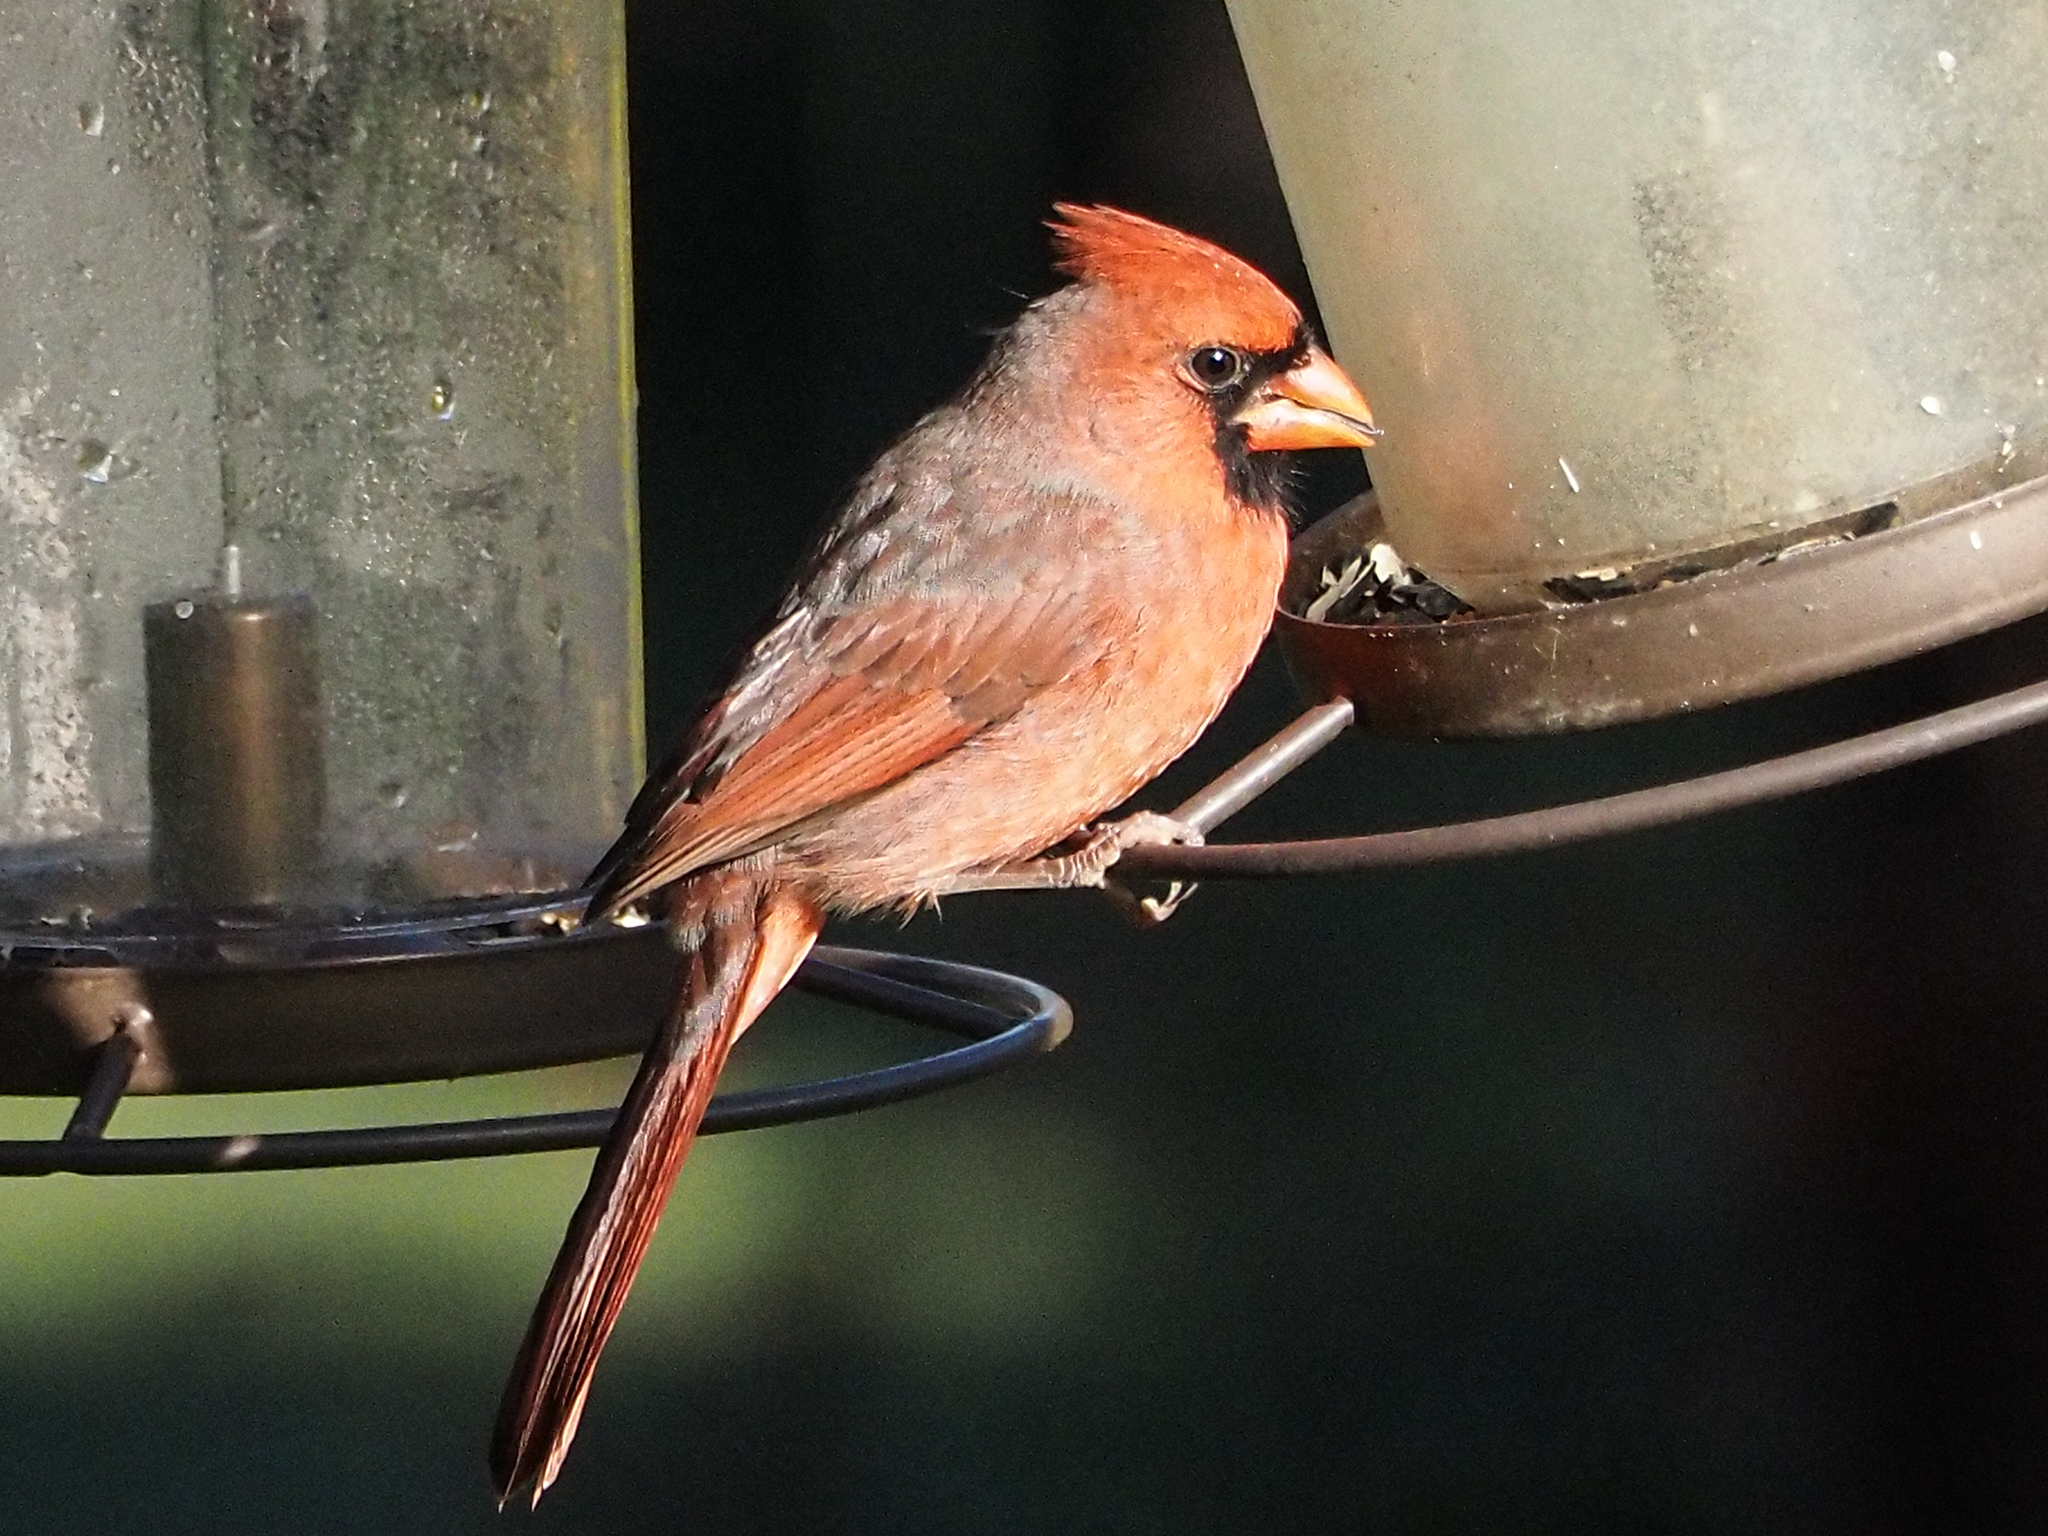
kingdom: Animalia
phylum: Chordata
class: Aves
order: Passeriformes
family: Cardinalidae
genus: Cardinalis
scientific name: Cardinalis cardinalis
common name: Northern cardinal
